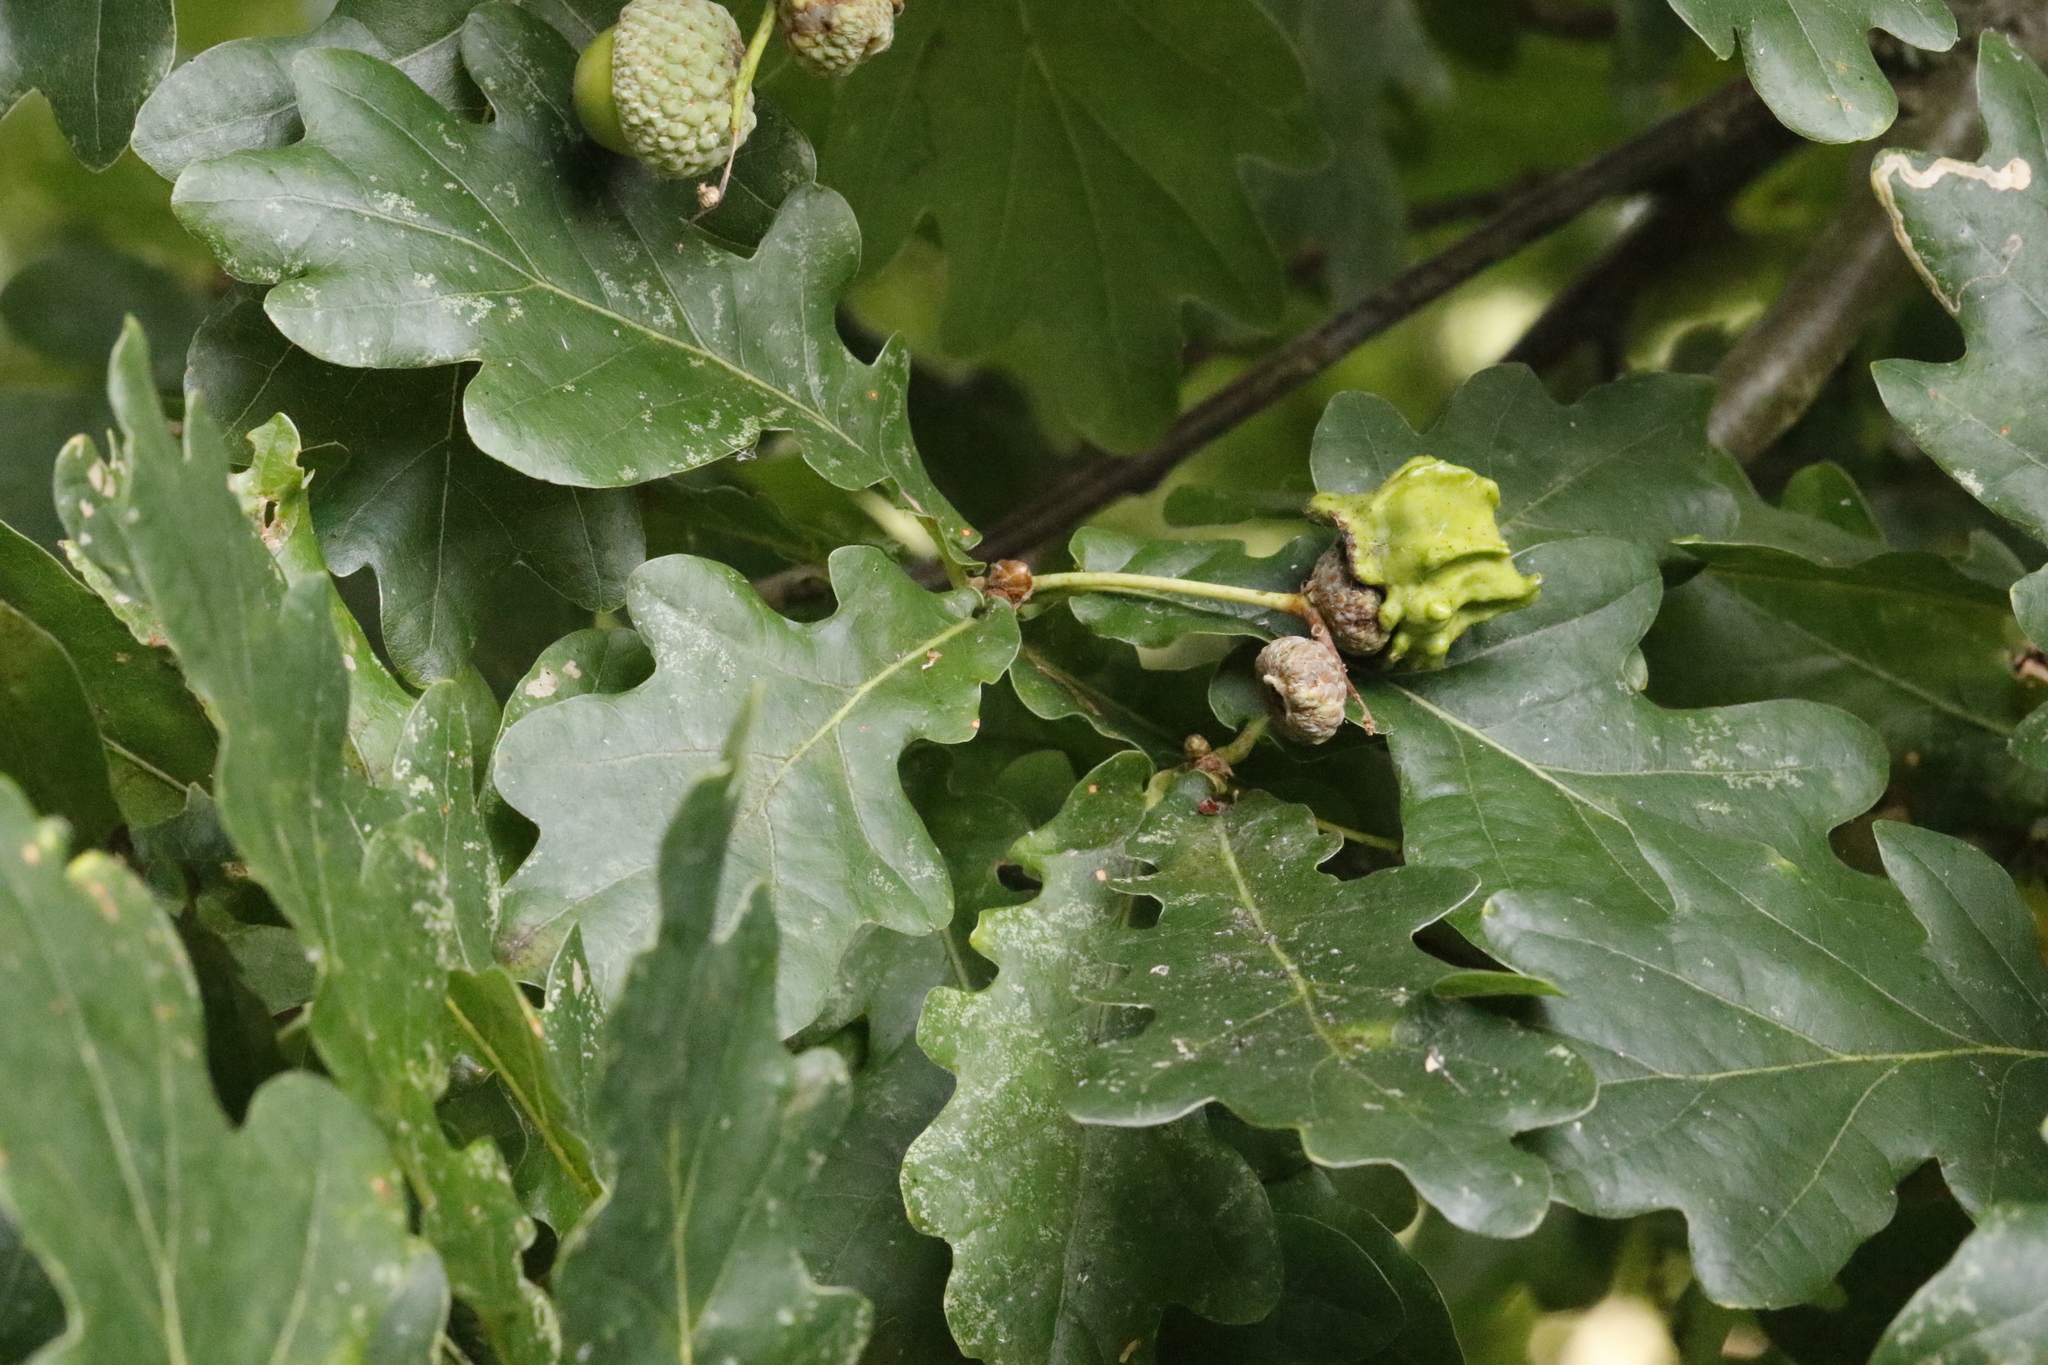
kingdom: Animalia
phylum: Arthropoda
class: Insecta
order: Hymenoptera
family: Cynipidae
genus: Andricus
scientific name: Andricus quercuscalicis
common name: Knopper gall
